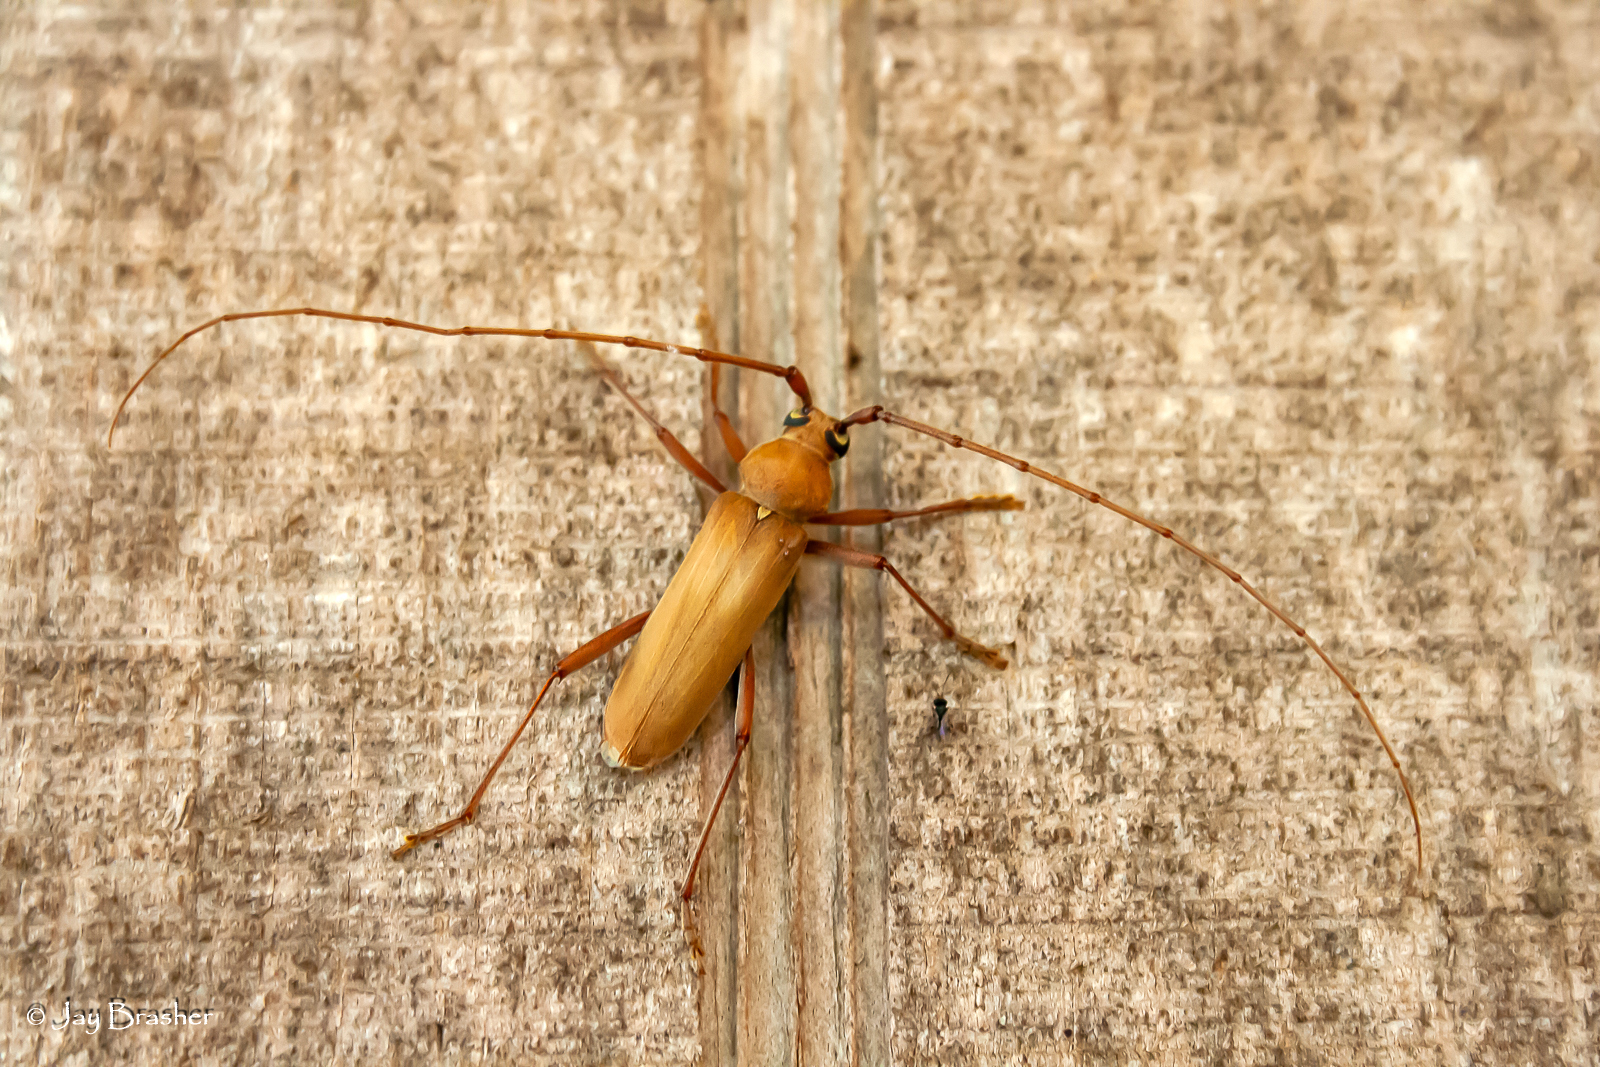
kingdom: Animalia
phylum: Arthropoda
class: Insecta
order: Coleoptera
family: Cerambycidae
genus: Knulliana
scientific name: Knulliana cincta
